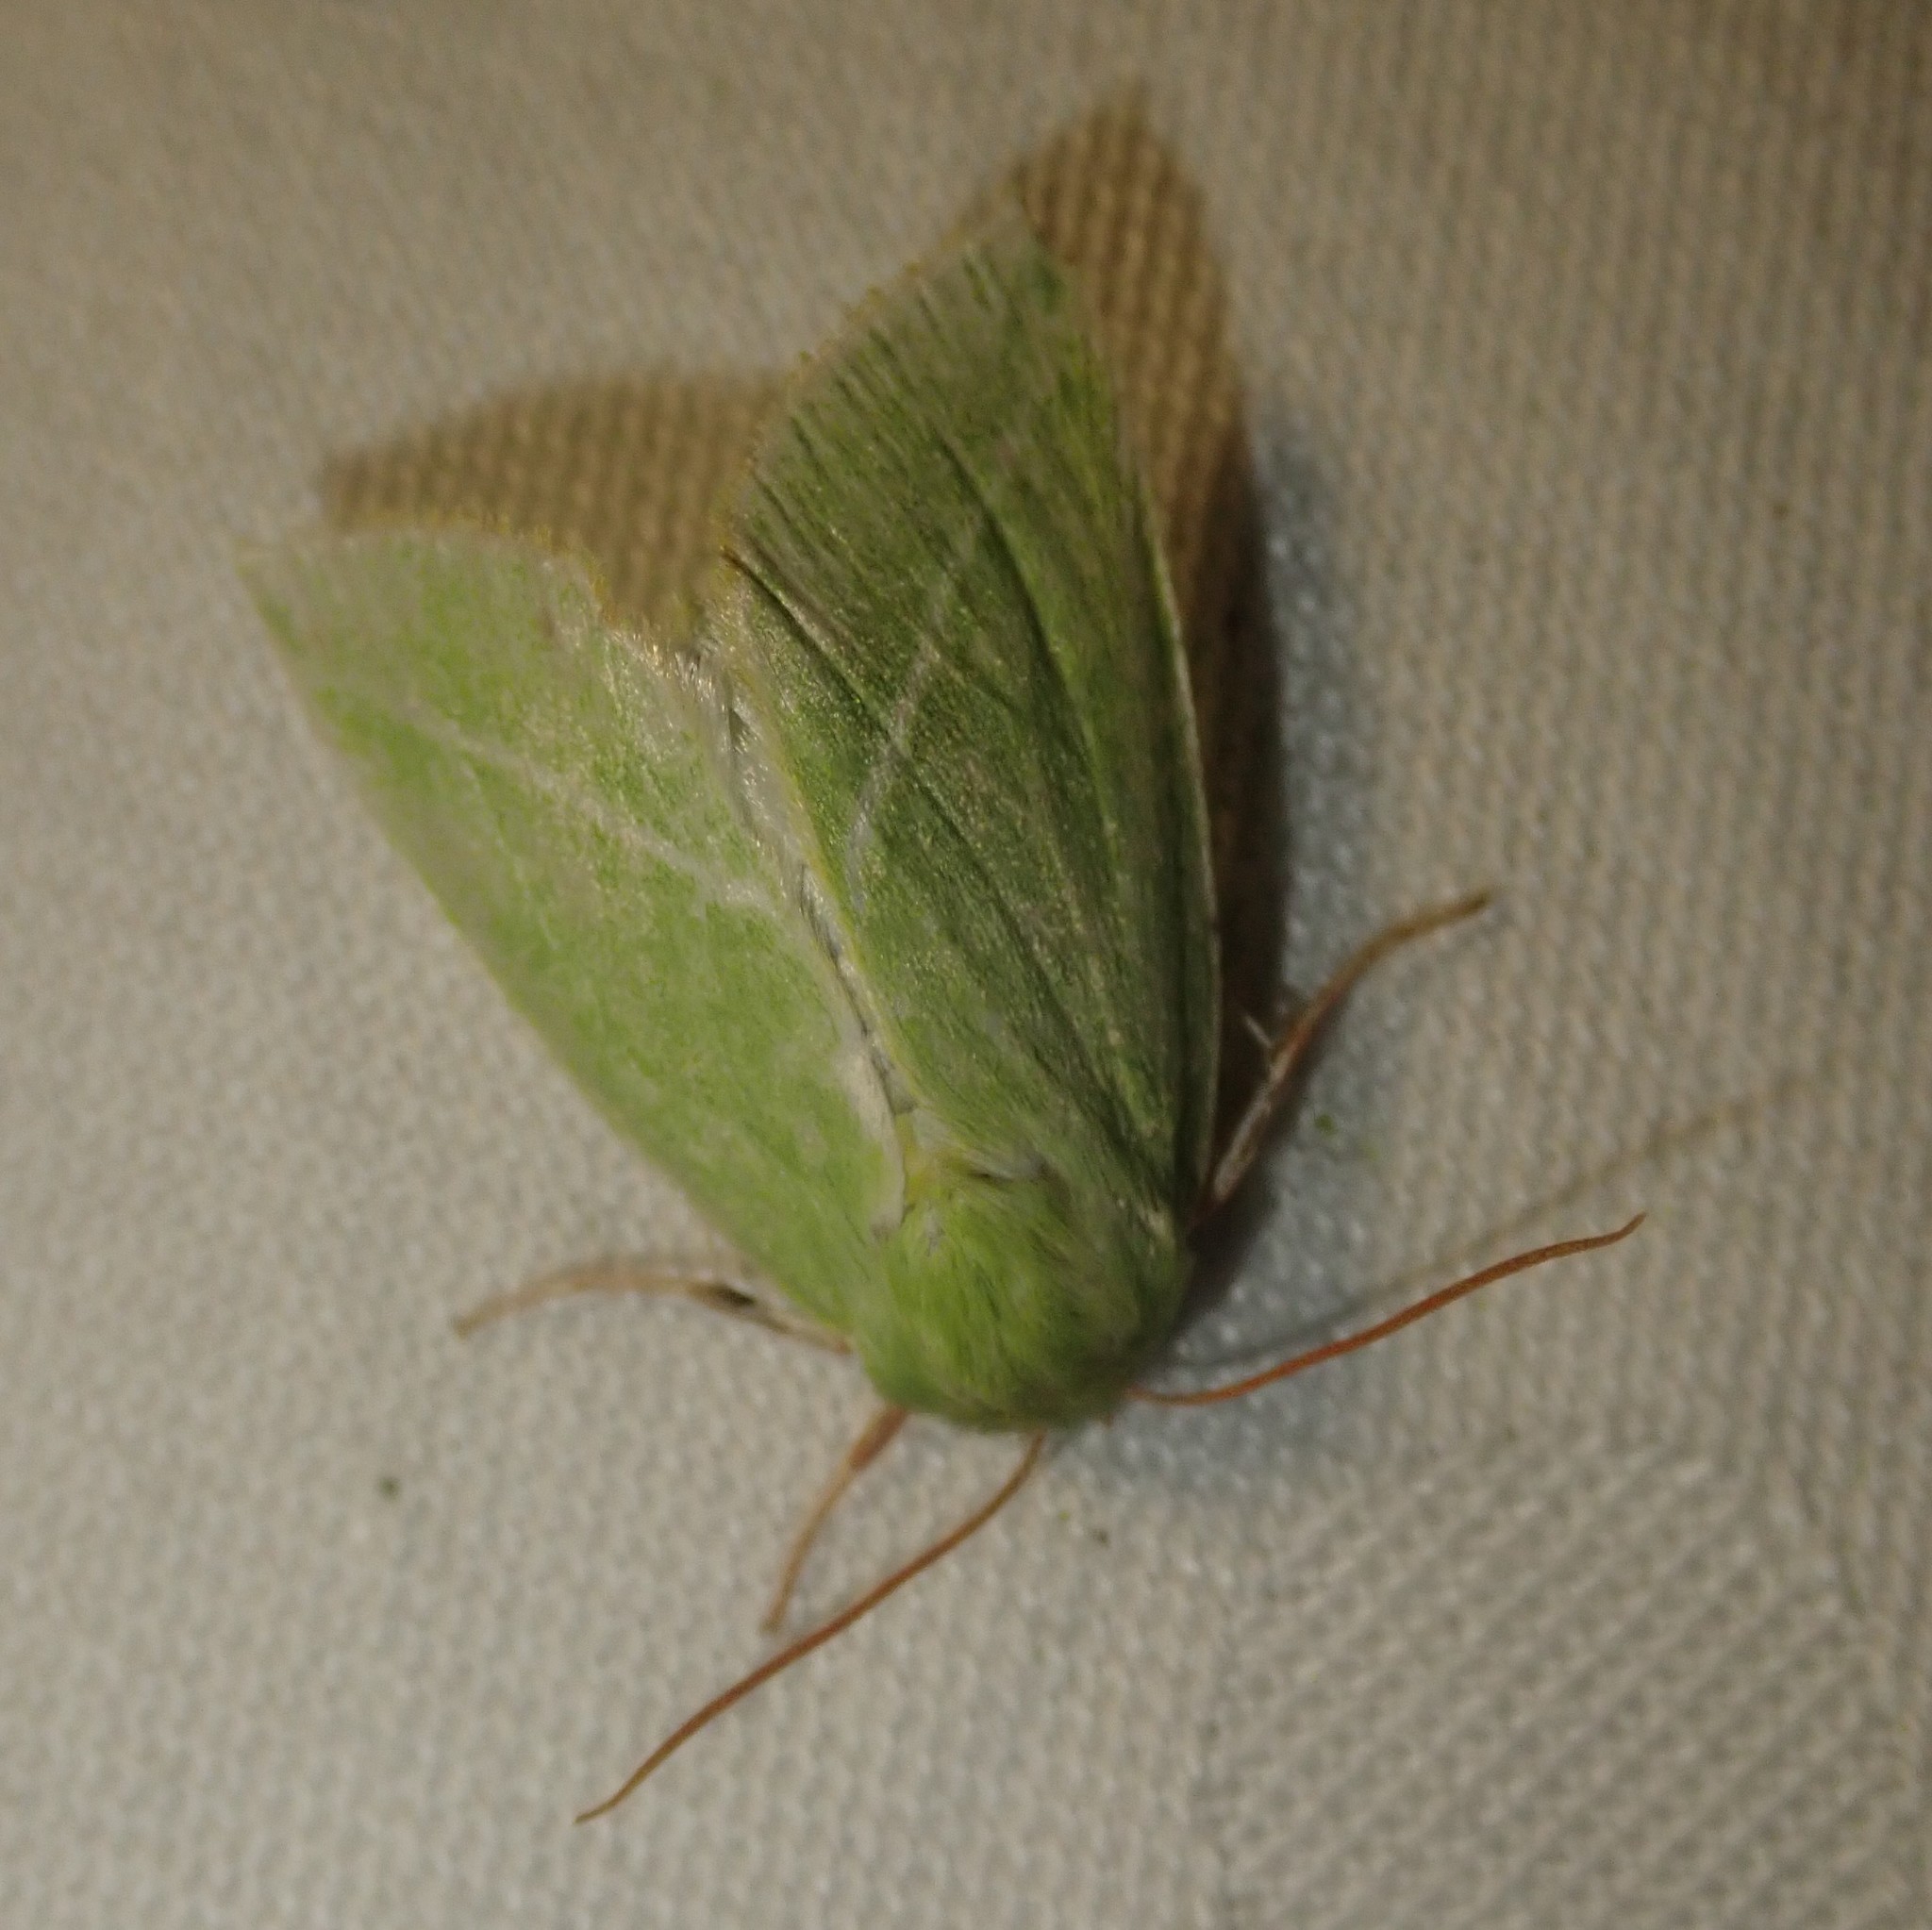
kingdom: Animalia
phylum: Arthropoda
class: Insecta
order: Lepidoptera
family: Nolidae
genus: Pseudoips
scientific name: Pseudoips prasinana
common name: Green silver-lines
